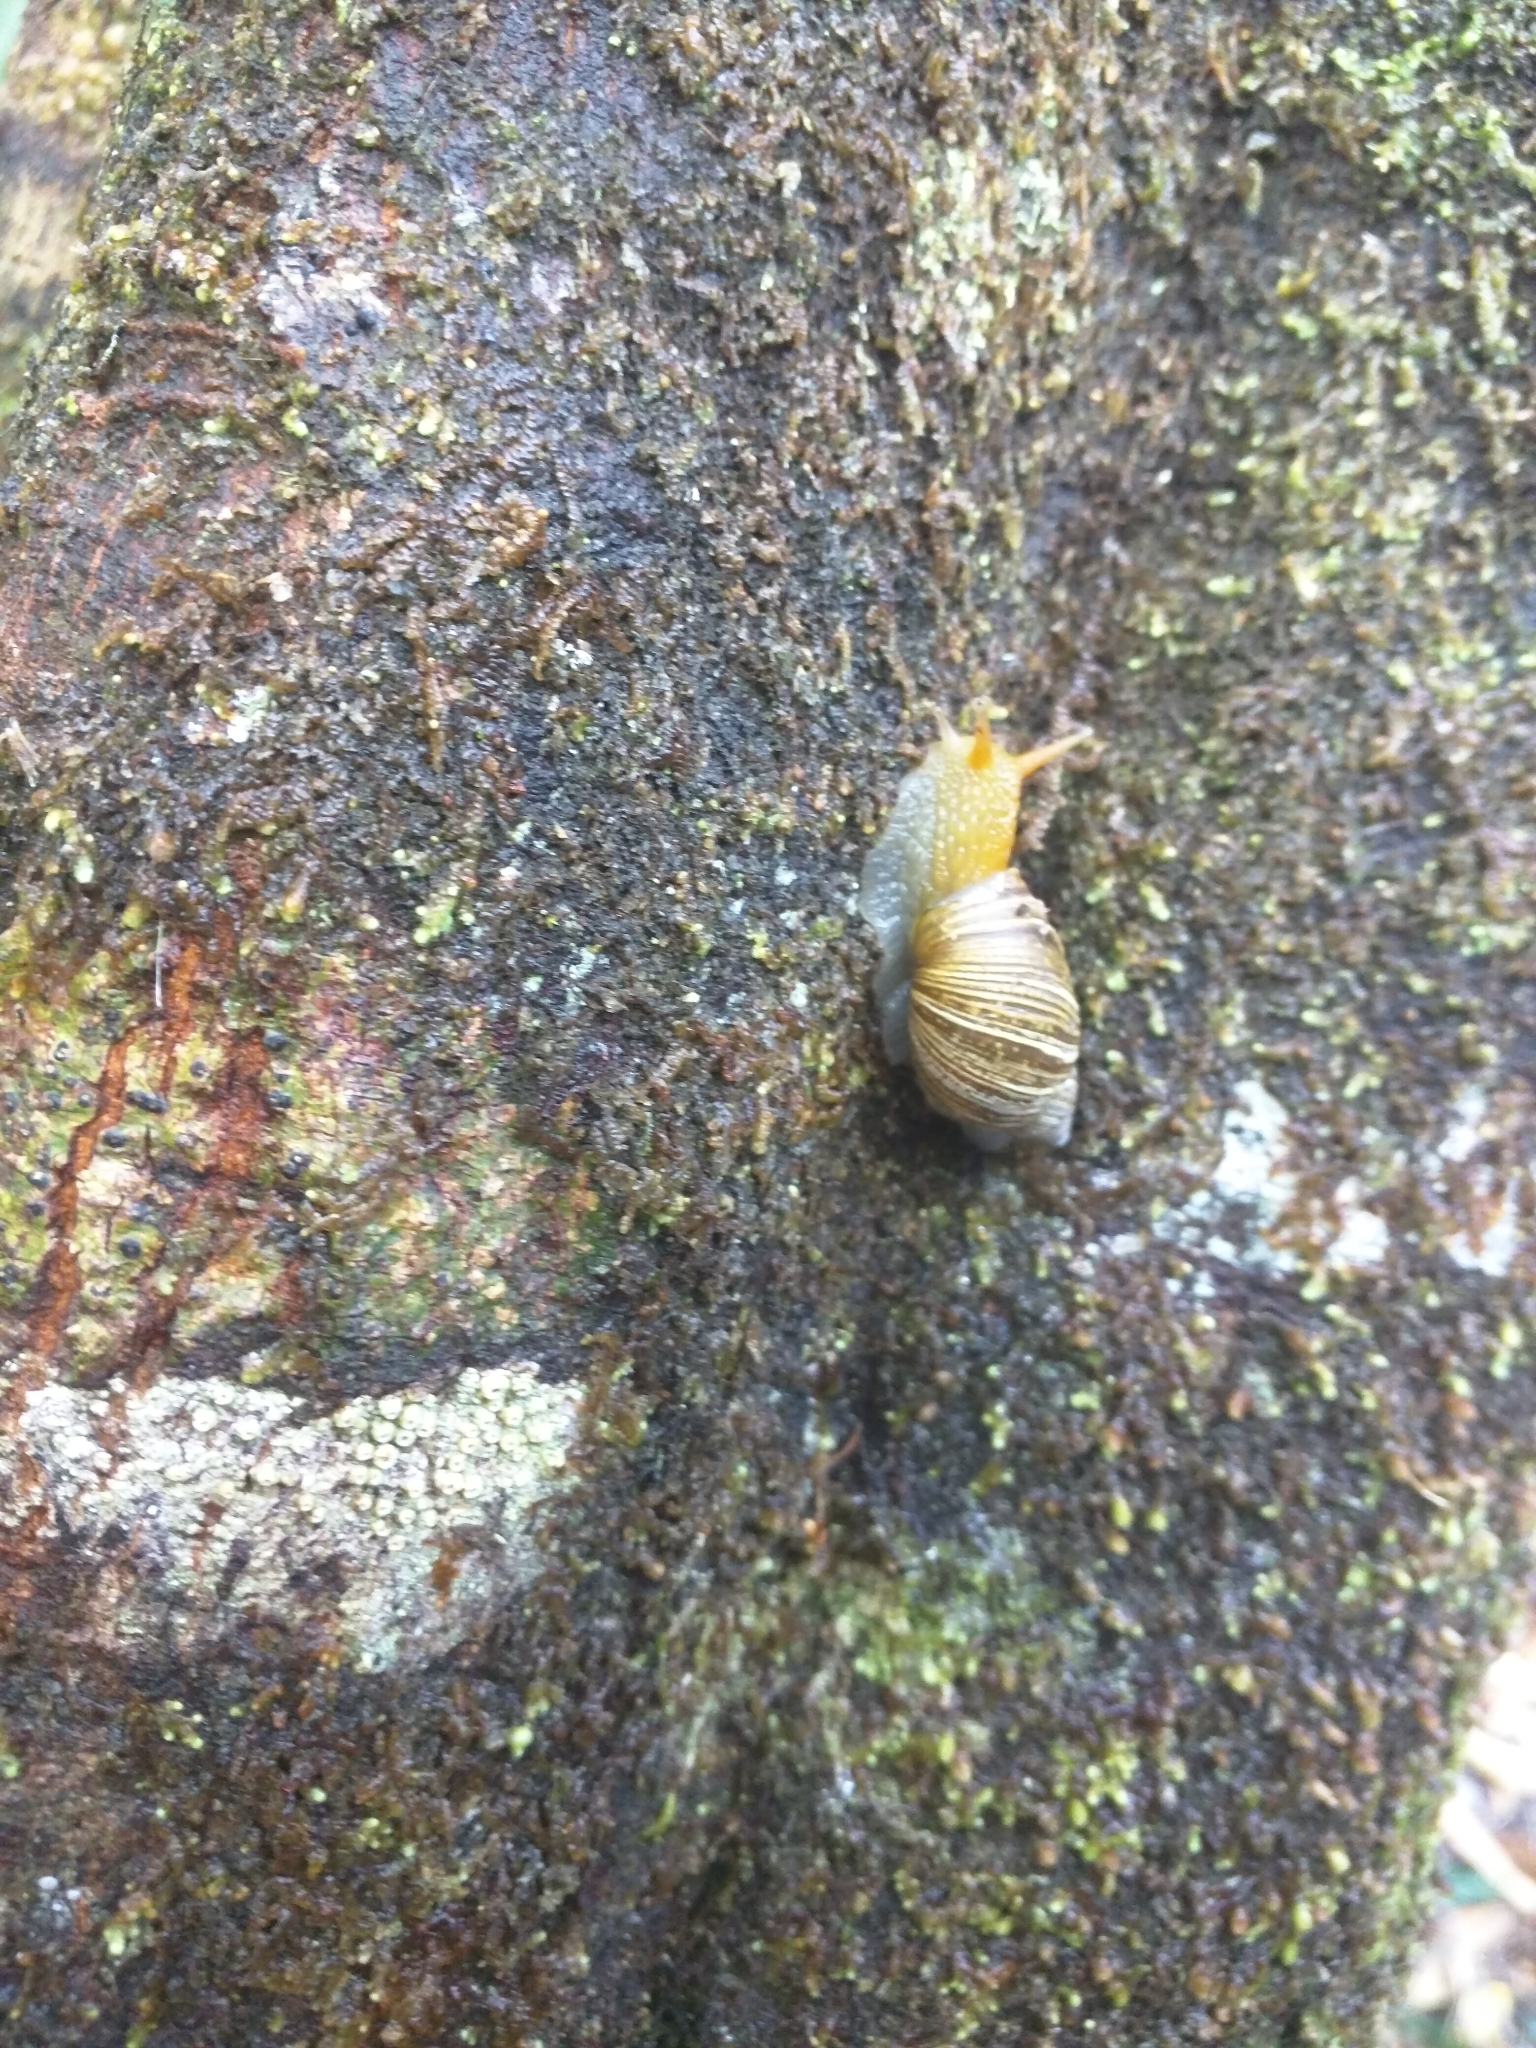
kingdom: Animalia
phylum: Mollusca
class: Gastropoda
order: Stylommatophora
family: Bothriembryontidae
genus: Bothriembryon
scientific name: Bothriembryon tasmanicus
